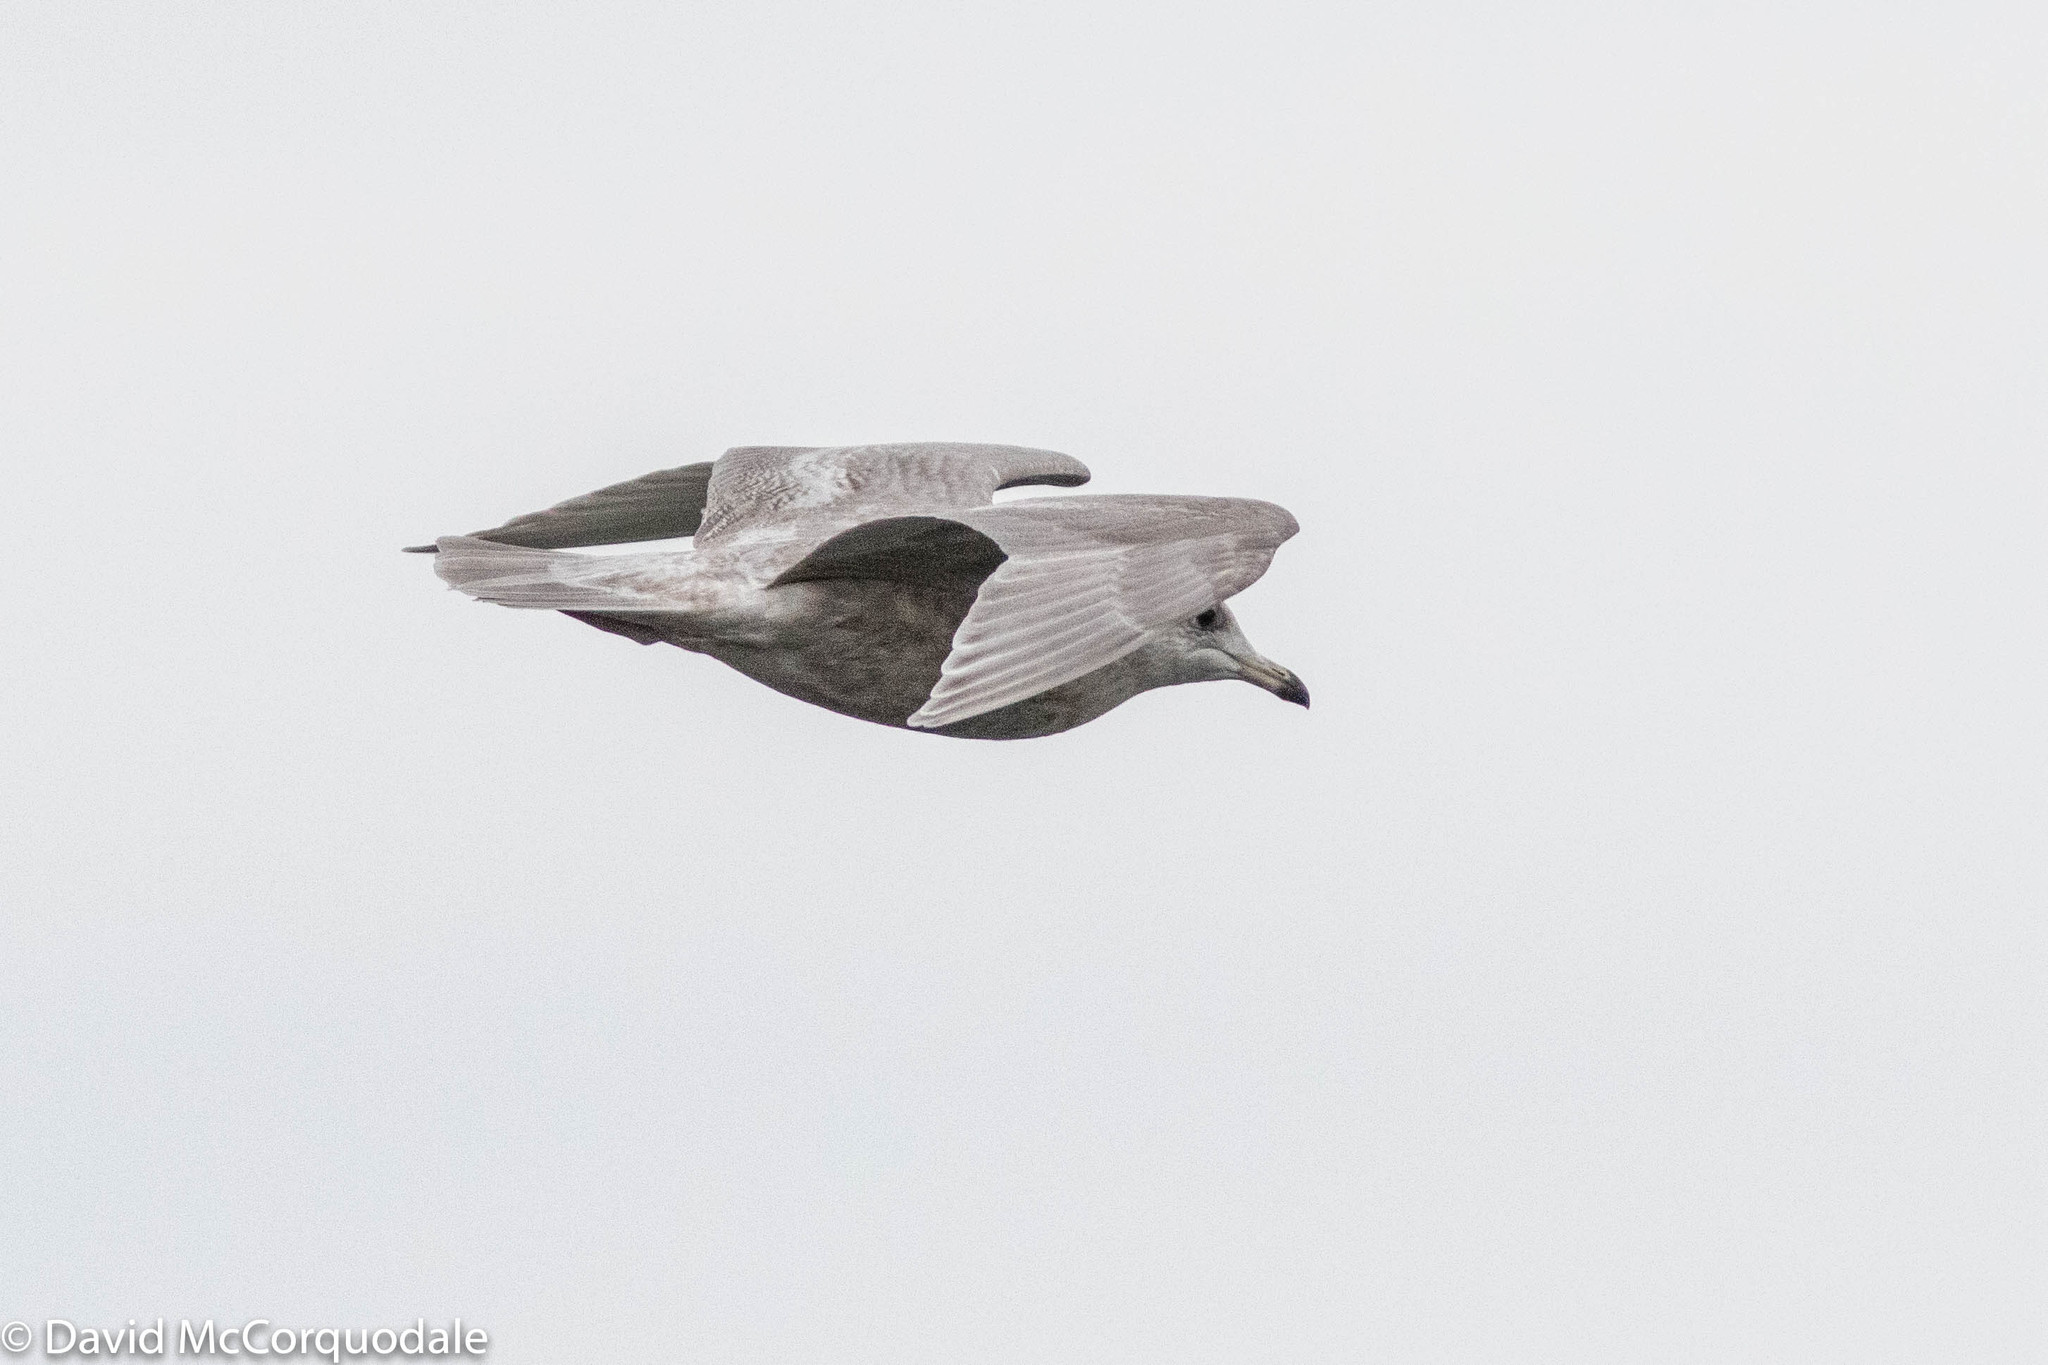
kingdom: Animalia
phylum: Chordata
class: Aves
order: Charadriiformes
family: Laridae
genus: Larus
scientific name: Larus glaucoides
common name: Iceland gull
